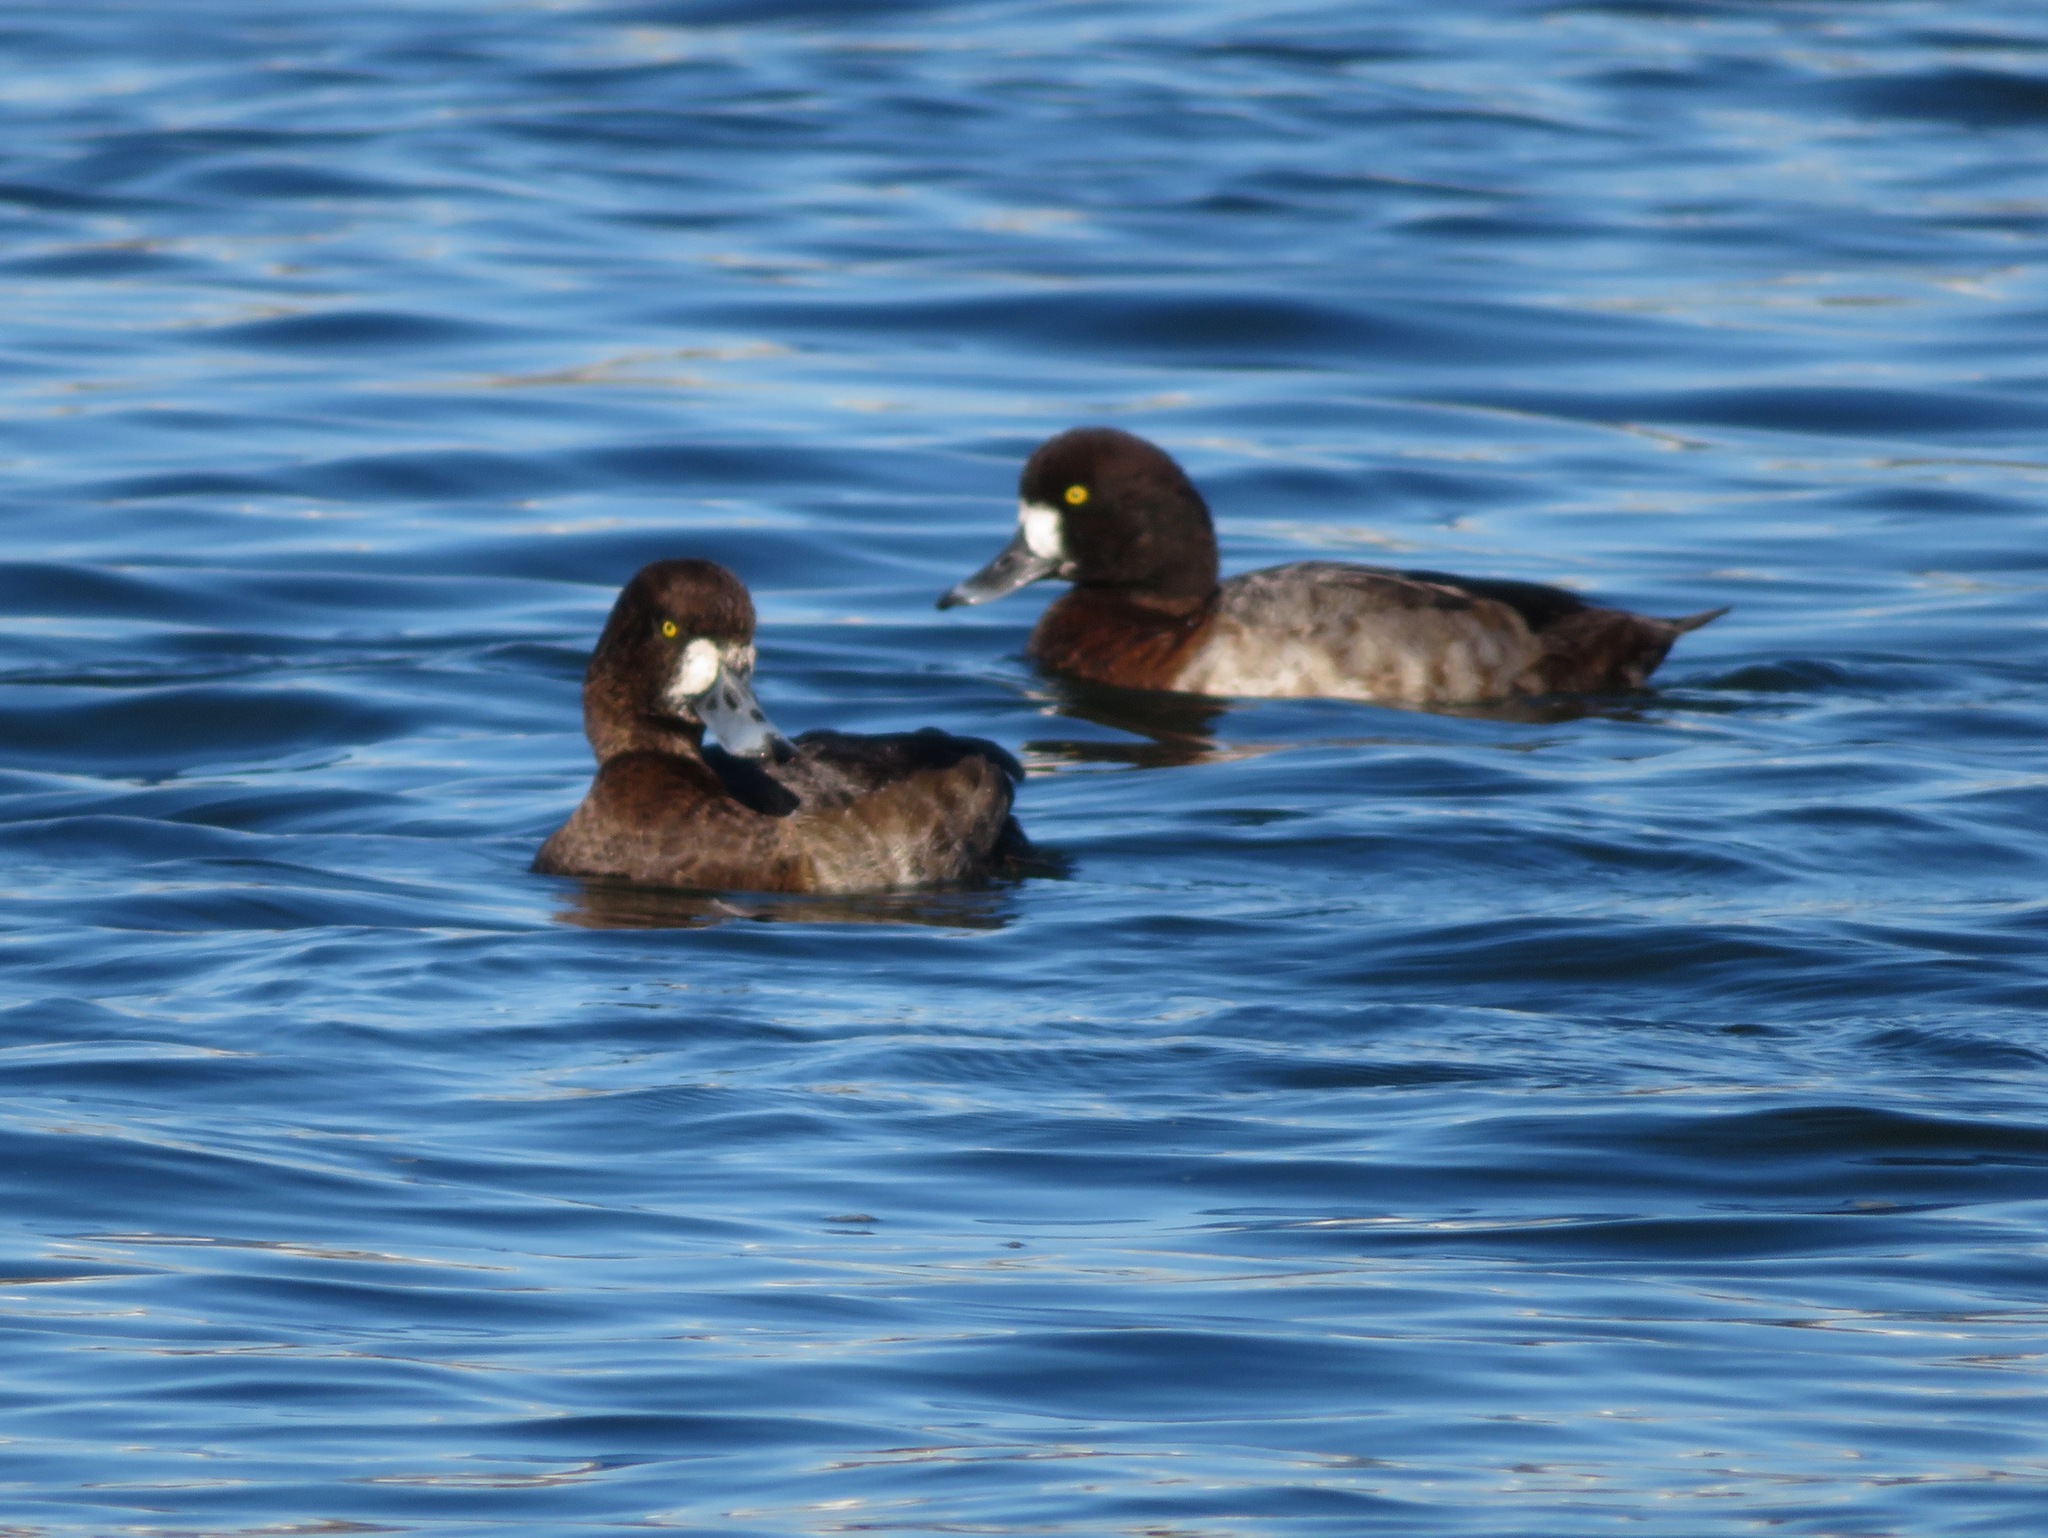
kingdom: Animalia
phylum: Chordata
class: Aves
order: Anseriformes
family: Anatidae
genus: Aythya
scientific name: Aythya marila
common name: Greater scaup
